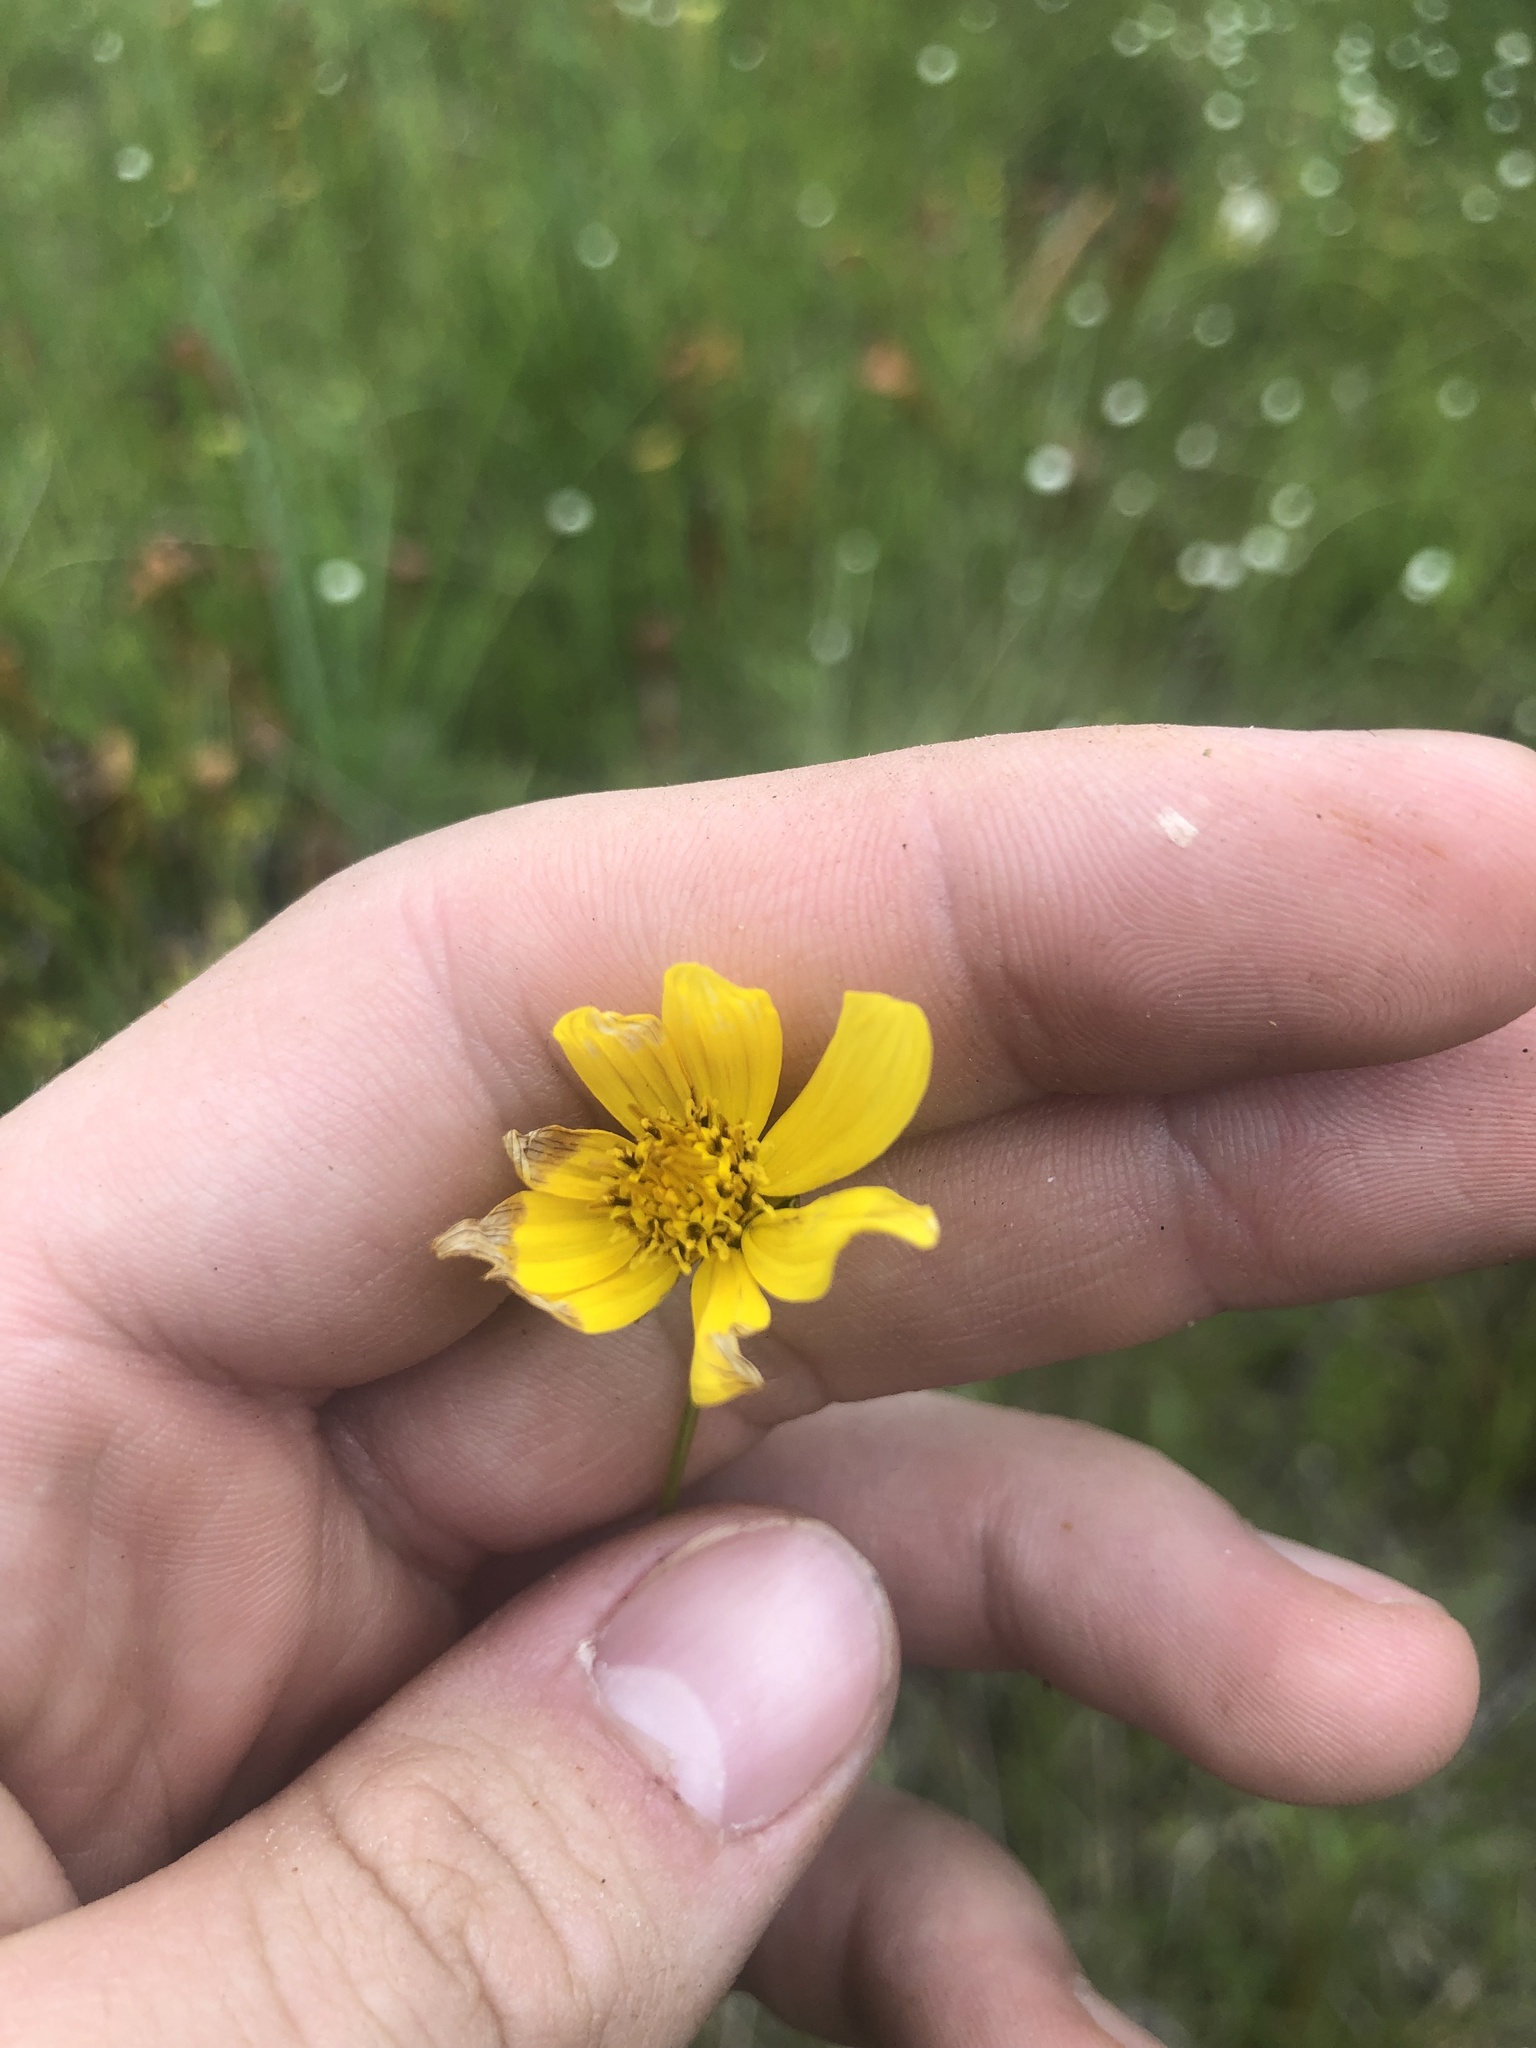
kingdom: Plantae
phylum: Tracheophyta
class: Magnoliopsida
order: Asterales
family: Asteraceae
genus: Bidens
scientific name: Bidens mitis
